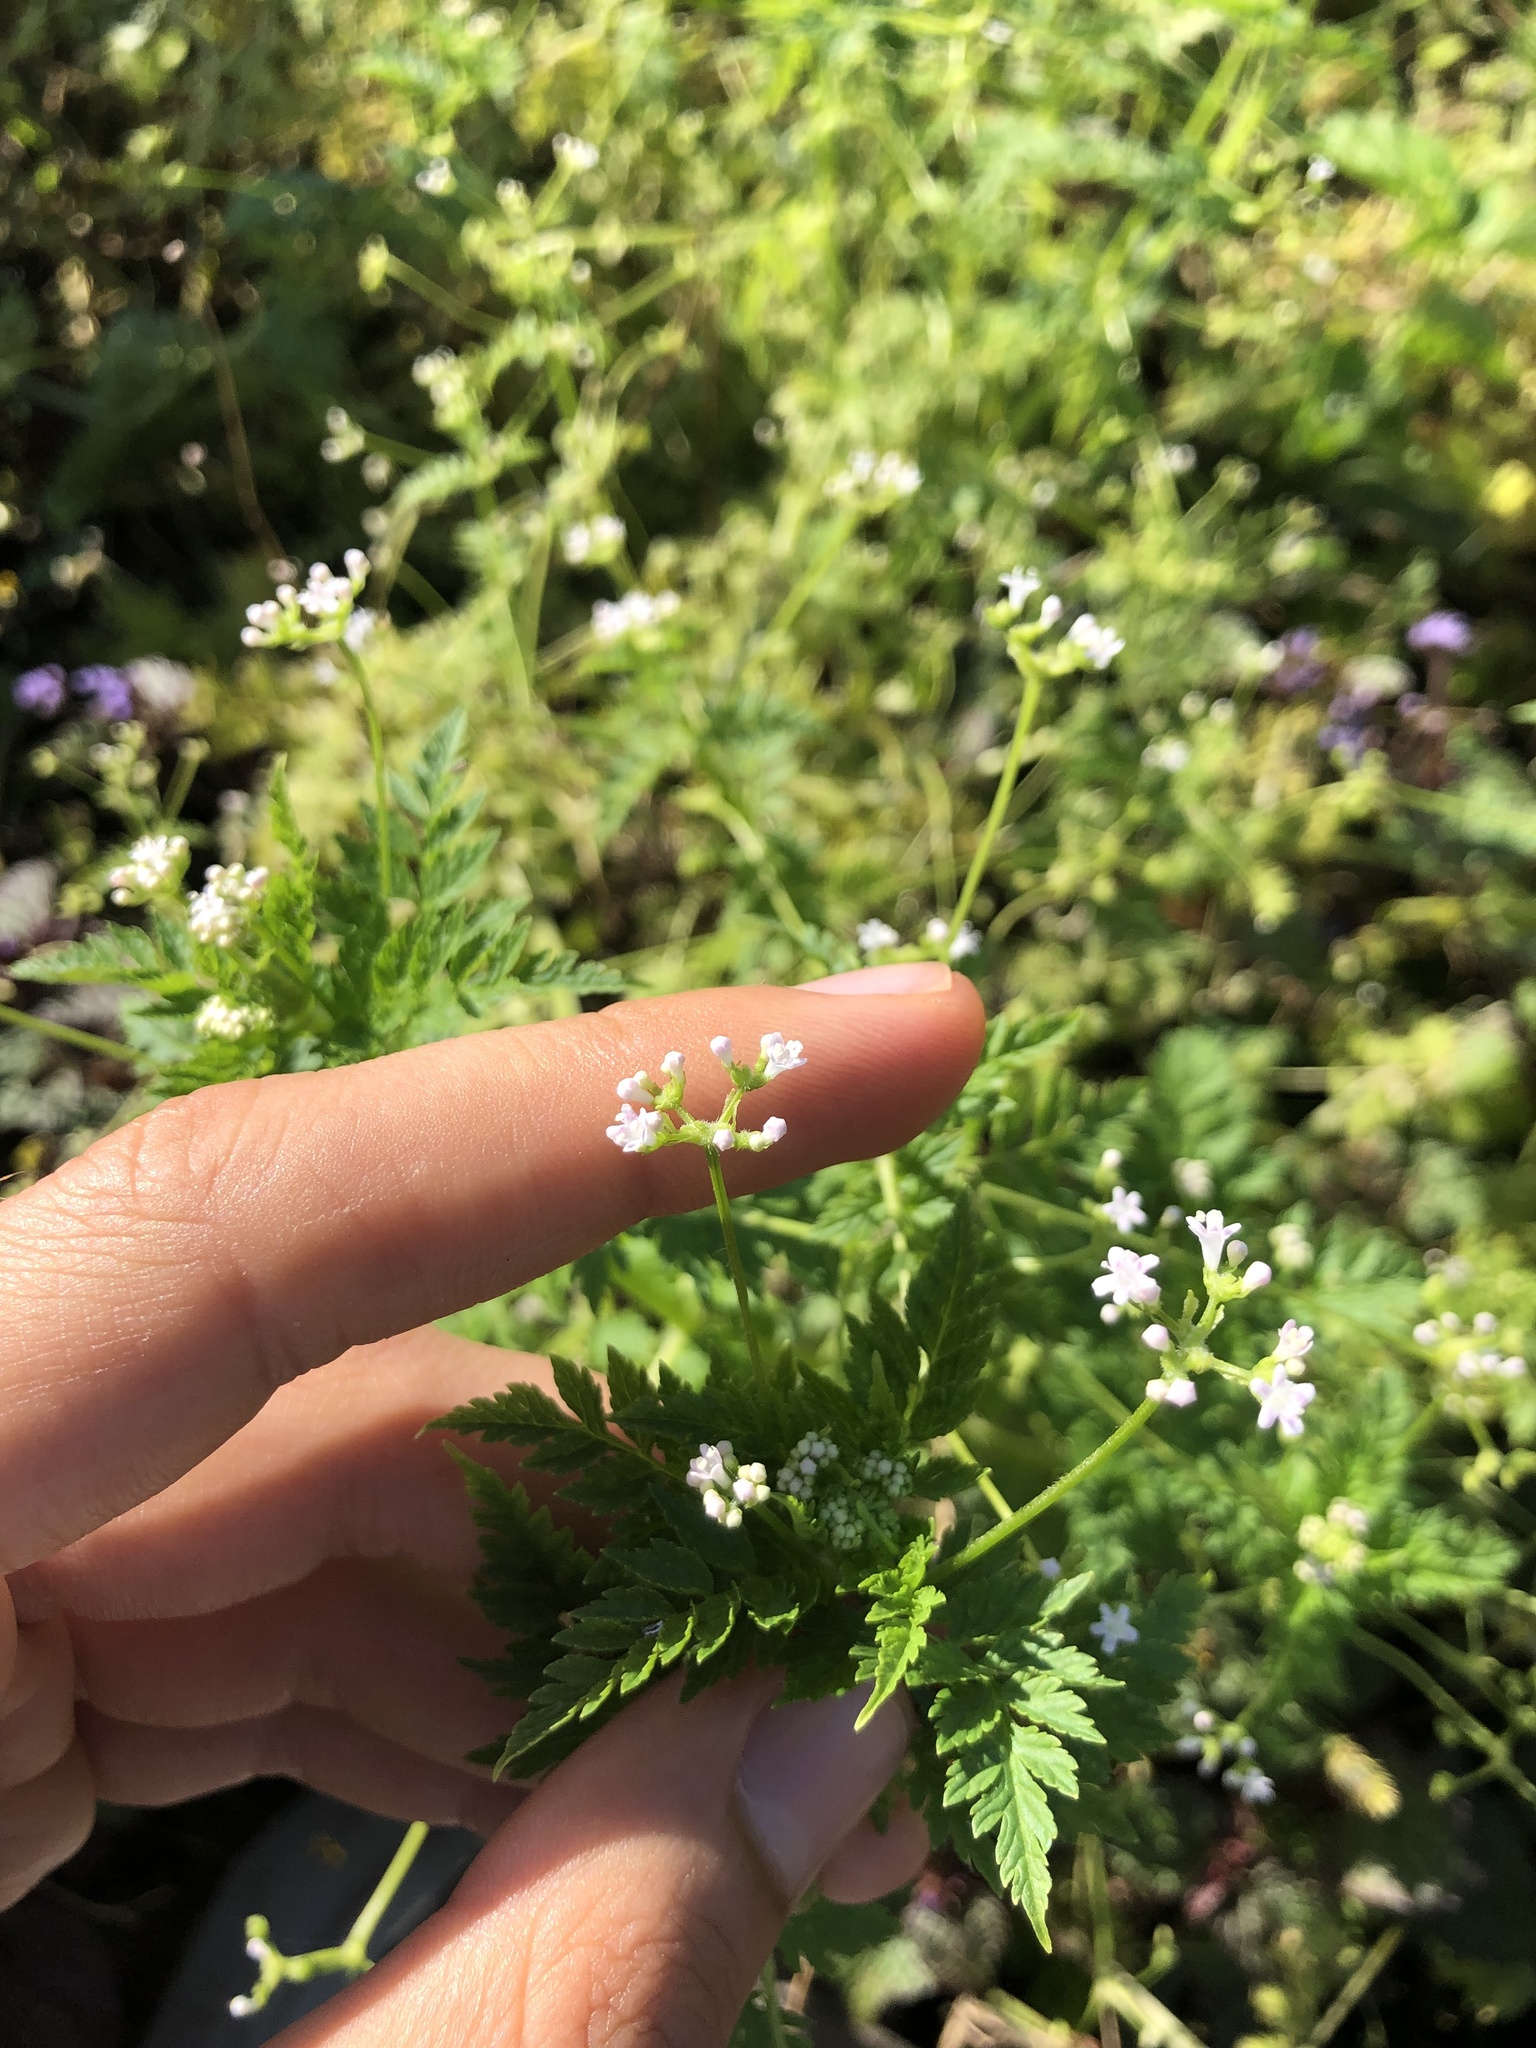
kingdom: Plantae
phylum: Tracheophyta
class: Magnoliopsida
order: Dipsacales
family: Caprifoliaceae
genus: Valeriana
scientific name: Valeriana chaerophylloides
